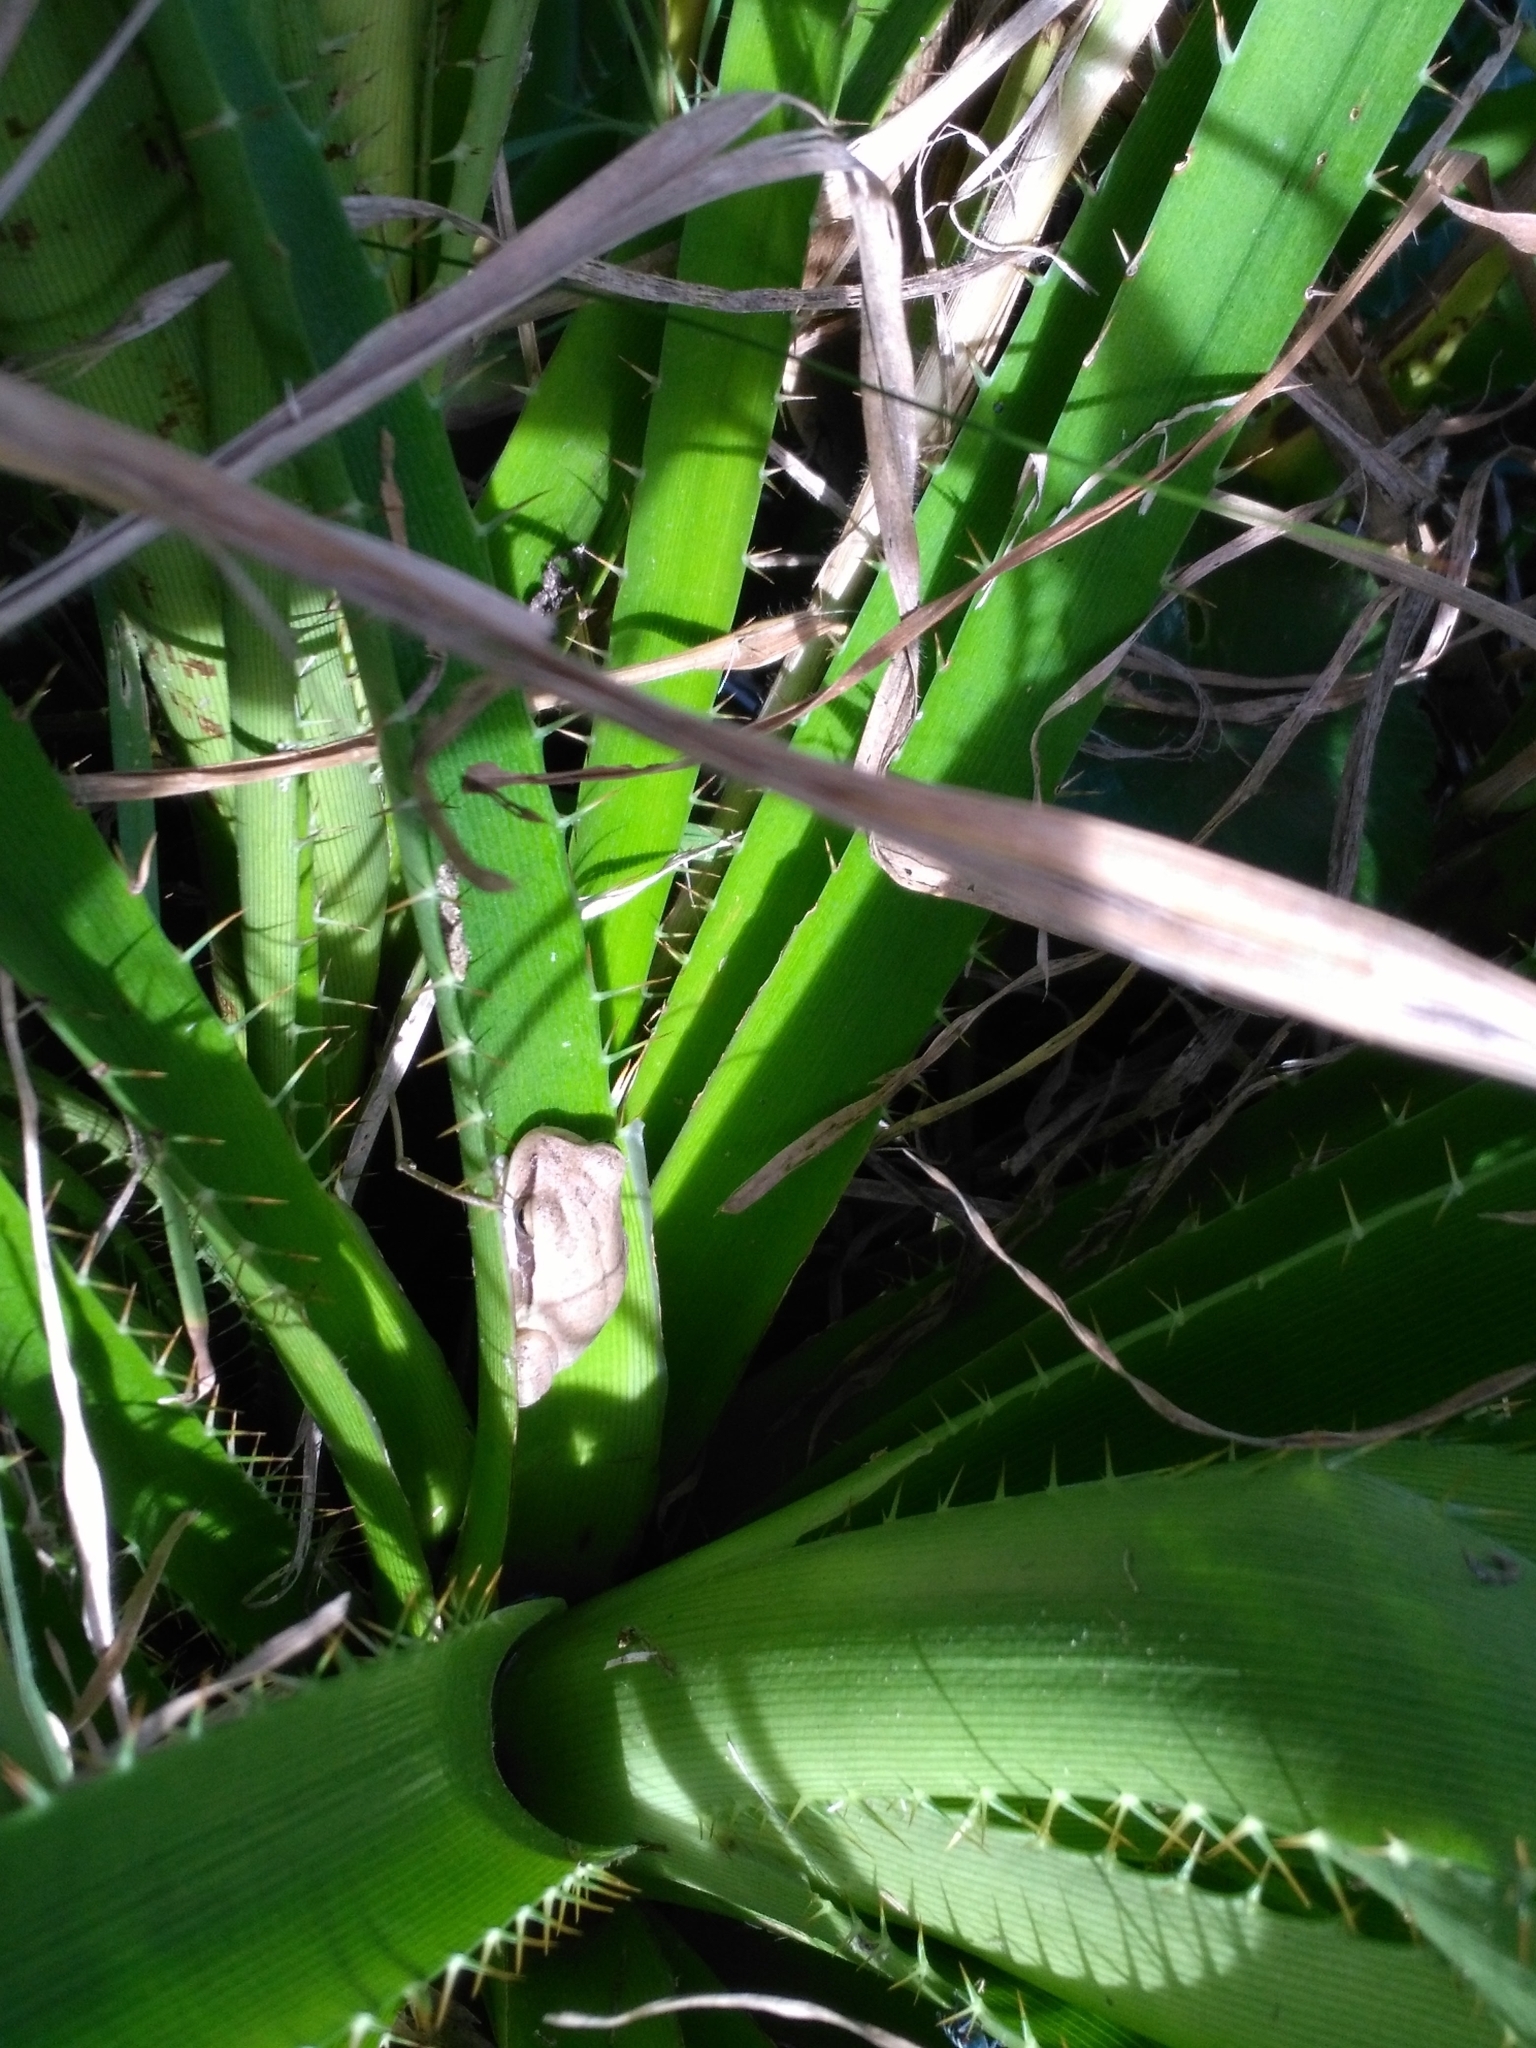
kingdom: Animalia
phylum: Chordata
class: Amphibia
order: Anura
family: Hylidae
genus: Boana
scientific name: Boana pulchella
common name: Montevideo treefrog
